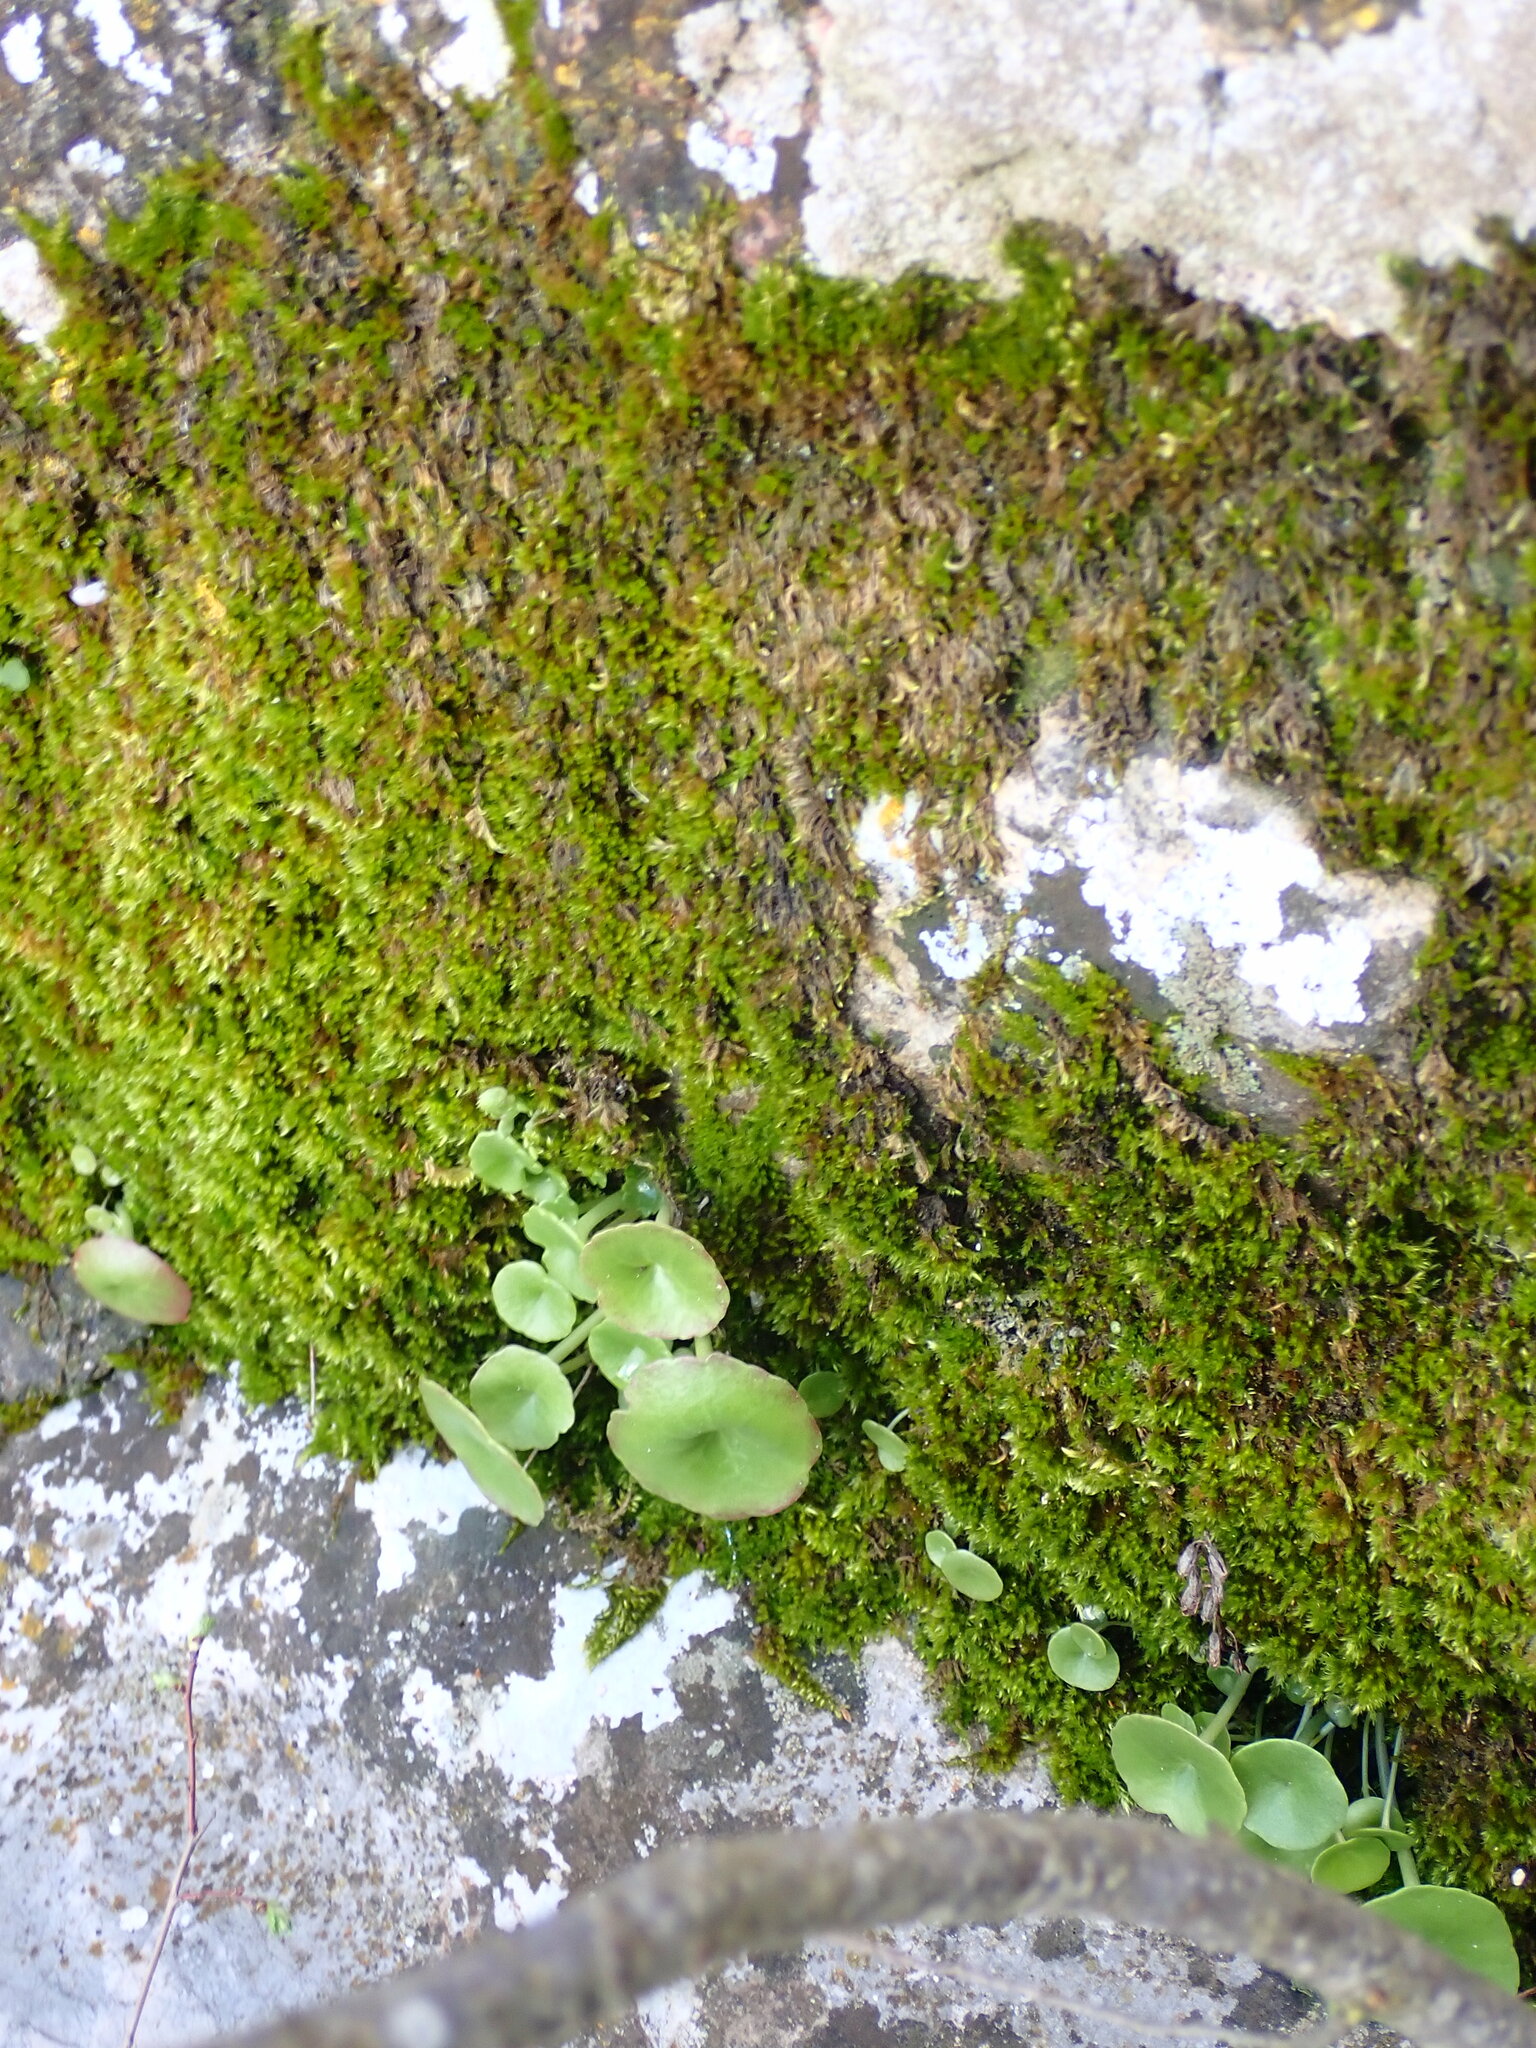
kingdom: Plantae
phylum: Tracheophyta
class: Magnoliopsida
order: Saxifragales
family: Crassulaceae
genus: Umbilicus
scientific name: Umbilicus rupestris
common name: Navelwort
